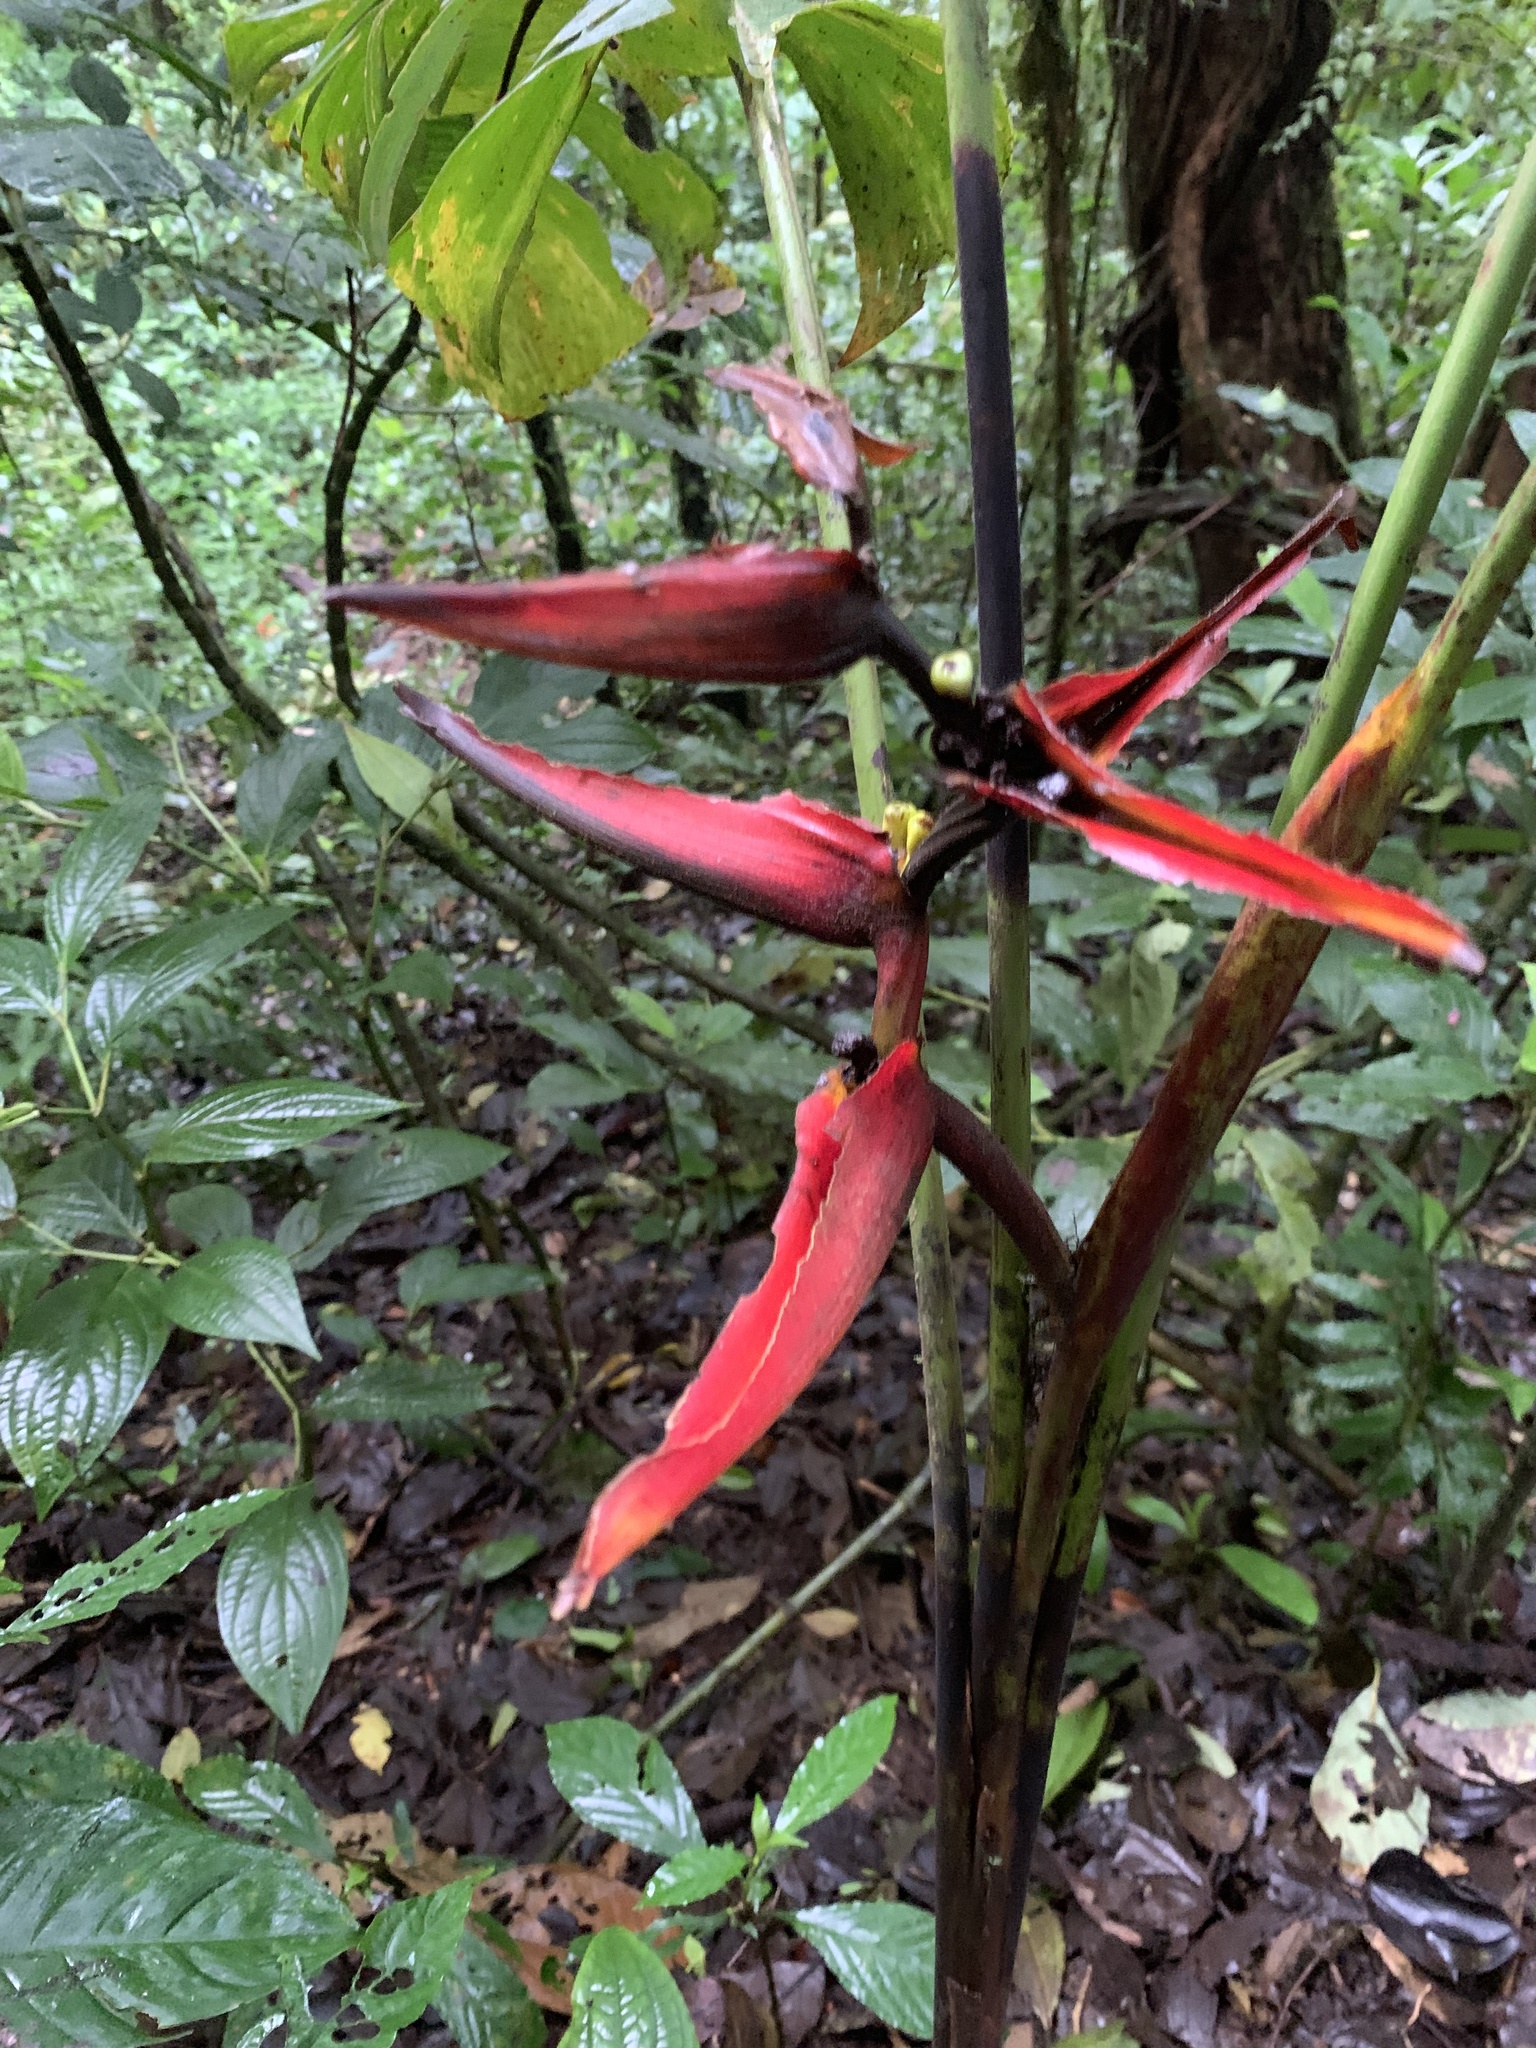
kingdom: Plantae
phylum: Tracheophyta
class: Liliopsida
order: Zingiberales
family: Heliconiaceae
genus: Heliconia
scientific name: Heliconia tortuosa
